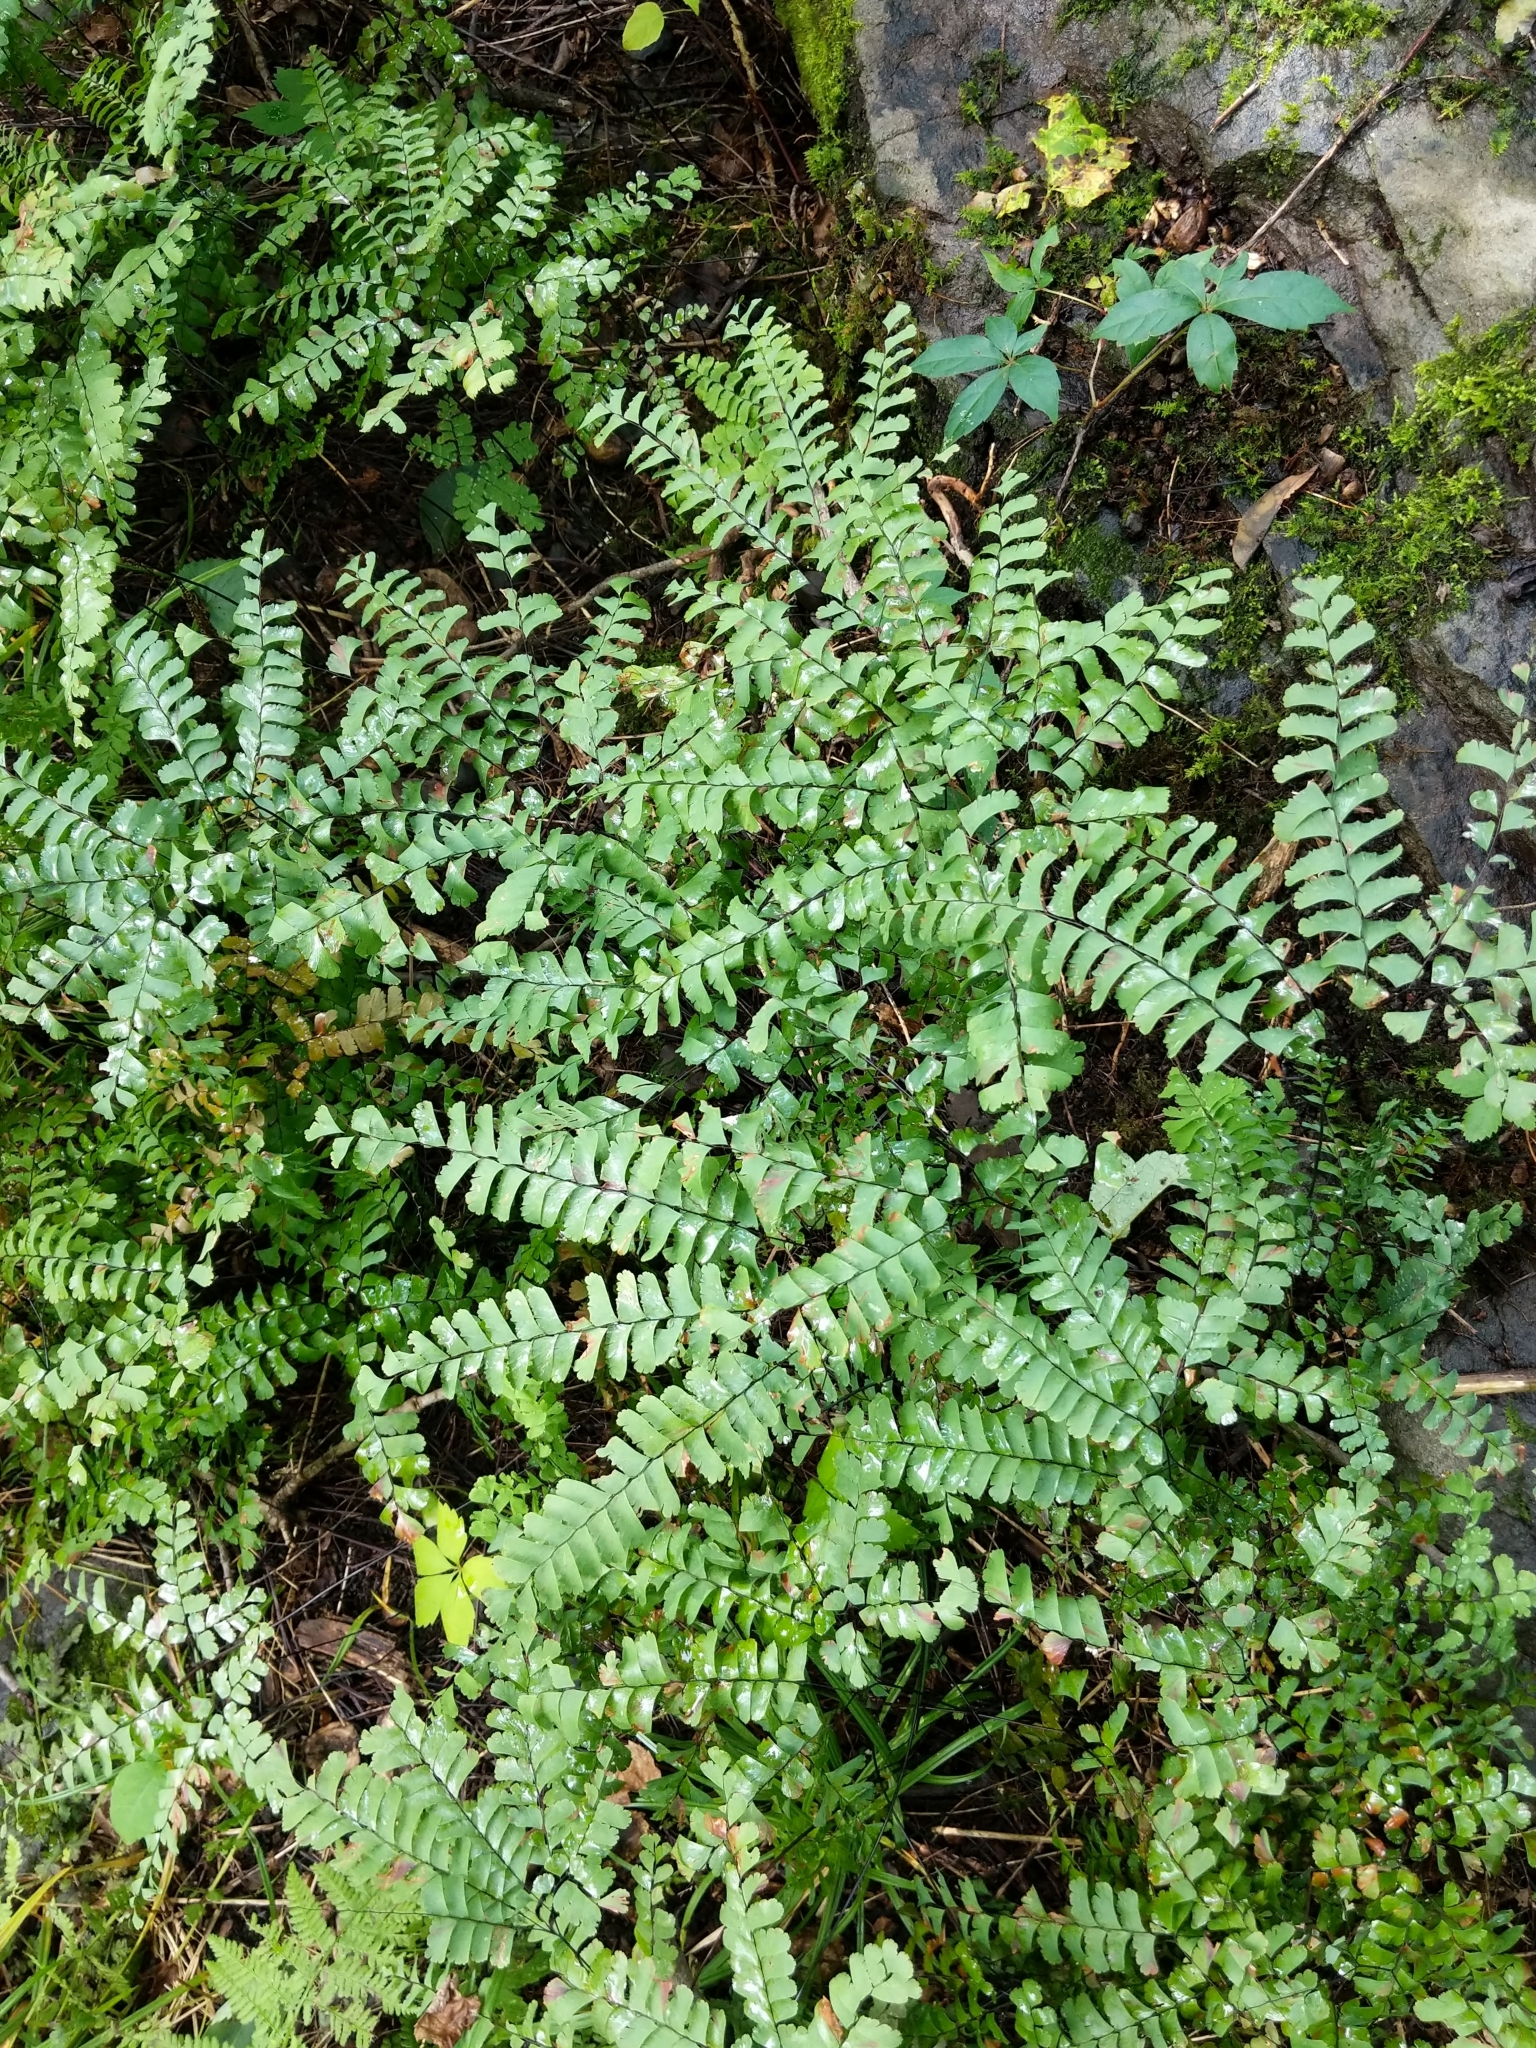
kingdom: Plantae
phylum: Tracheophyta
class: Polypodiopsida
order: Polypodiales
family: Pteridaceae
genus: Adiantum
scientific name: Adiantum pedatum
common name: Five-finger fern
